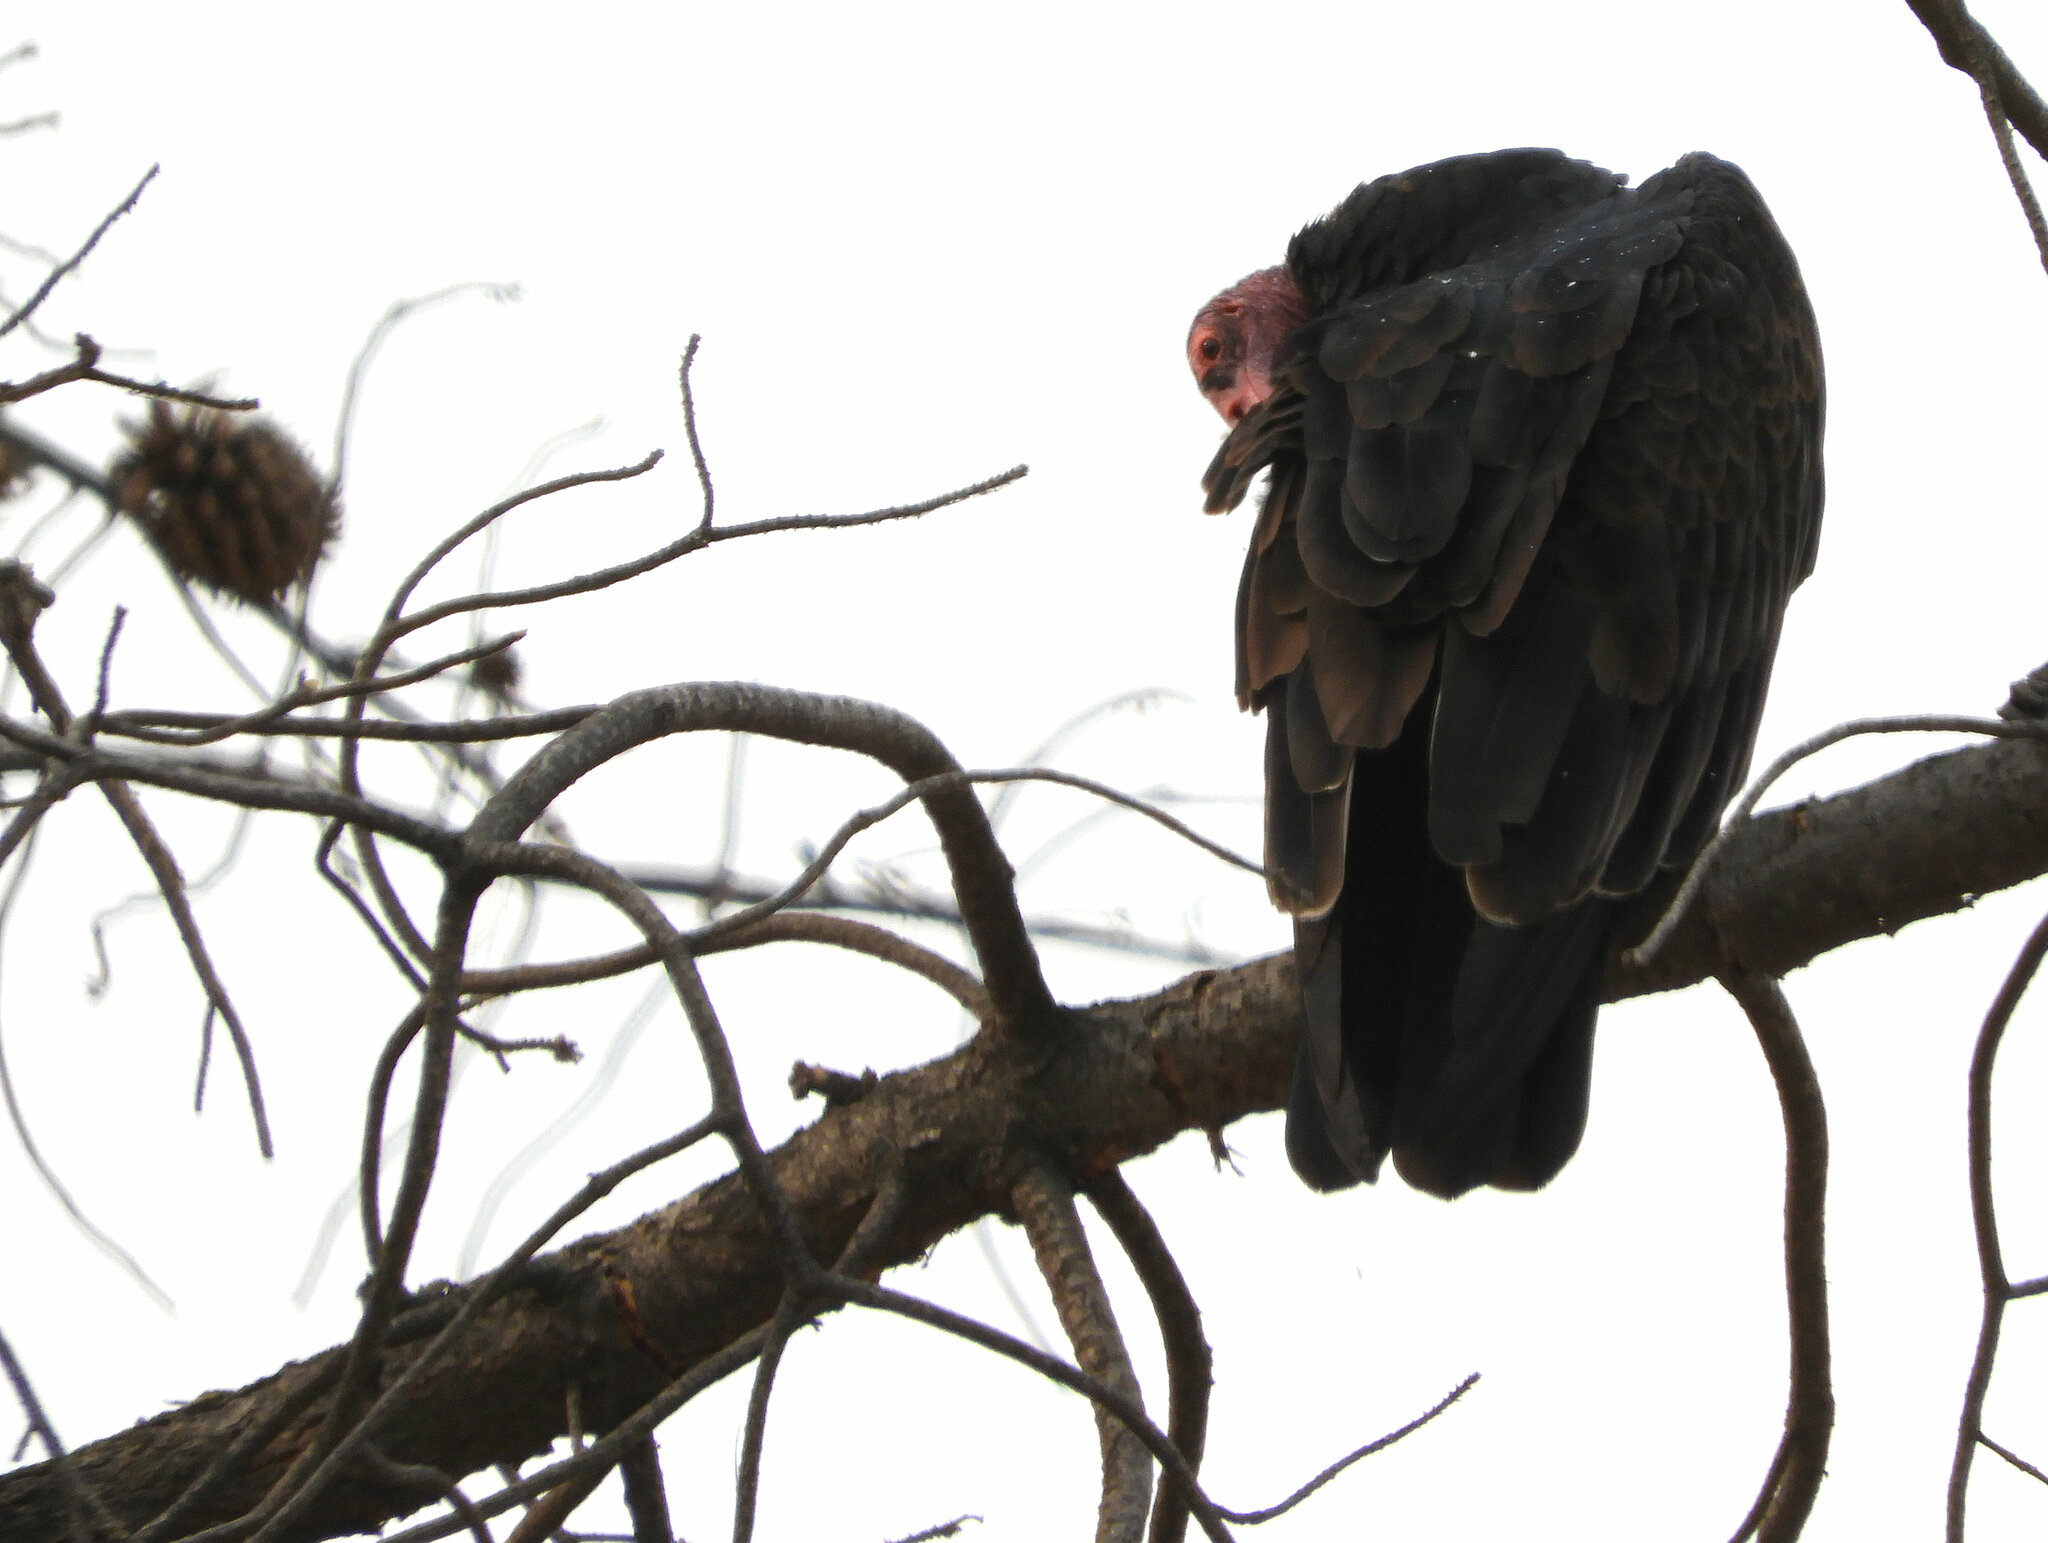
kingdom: Animalia
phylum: Chordata
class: Aves
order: Accipitriformes
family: Cathartidae
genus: Cathartes
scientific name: Cathartes aura
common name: Turkey vulture
